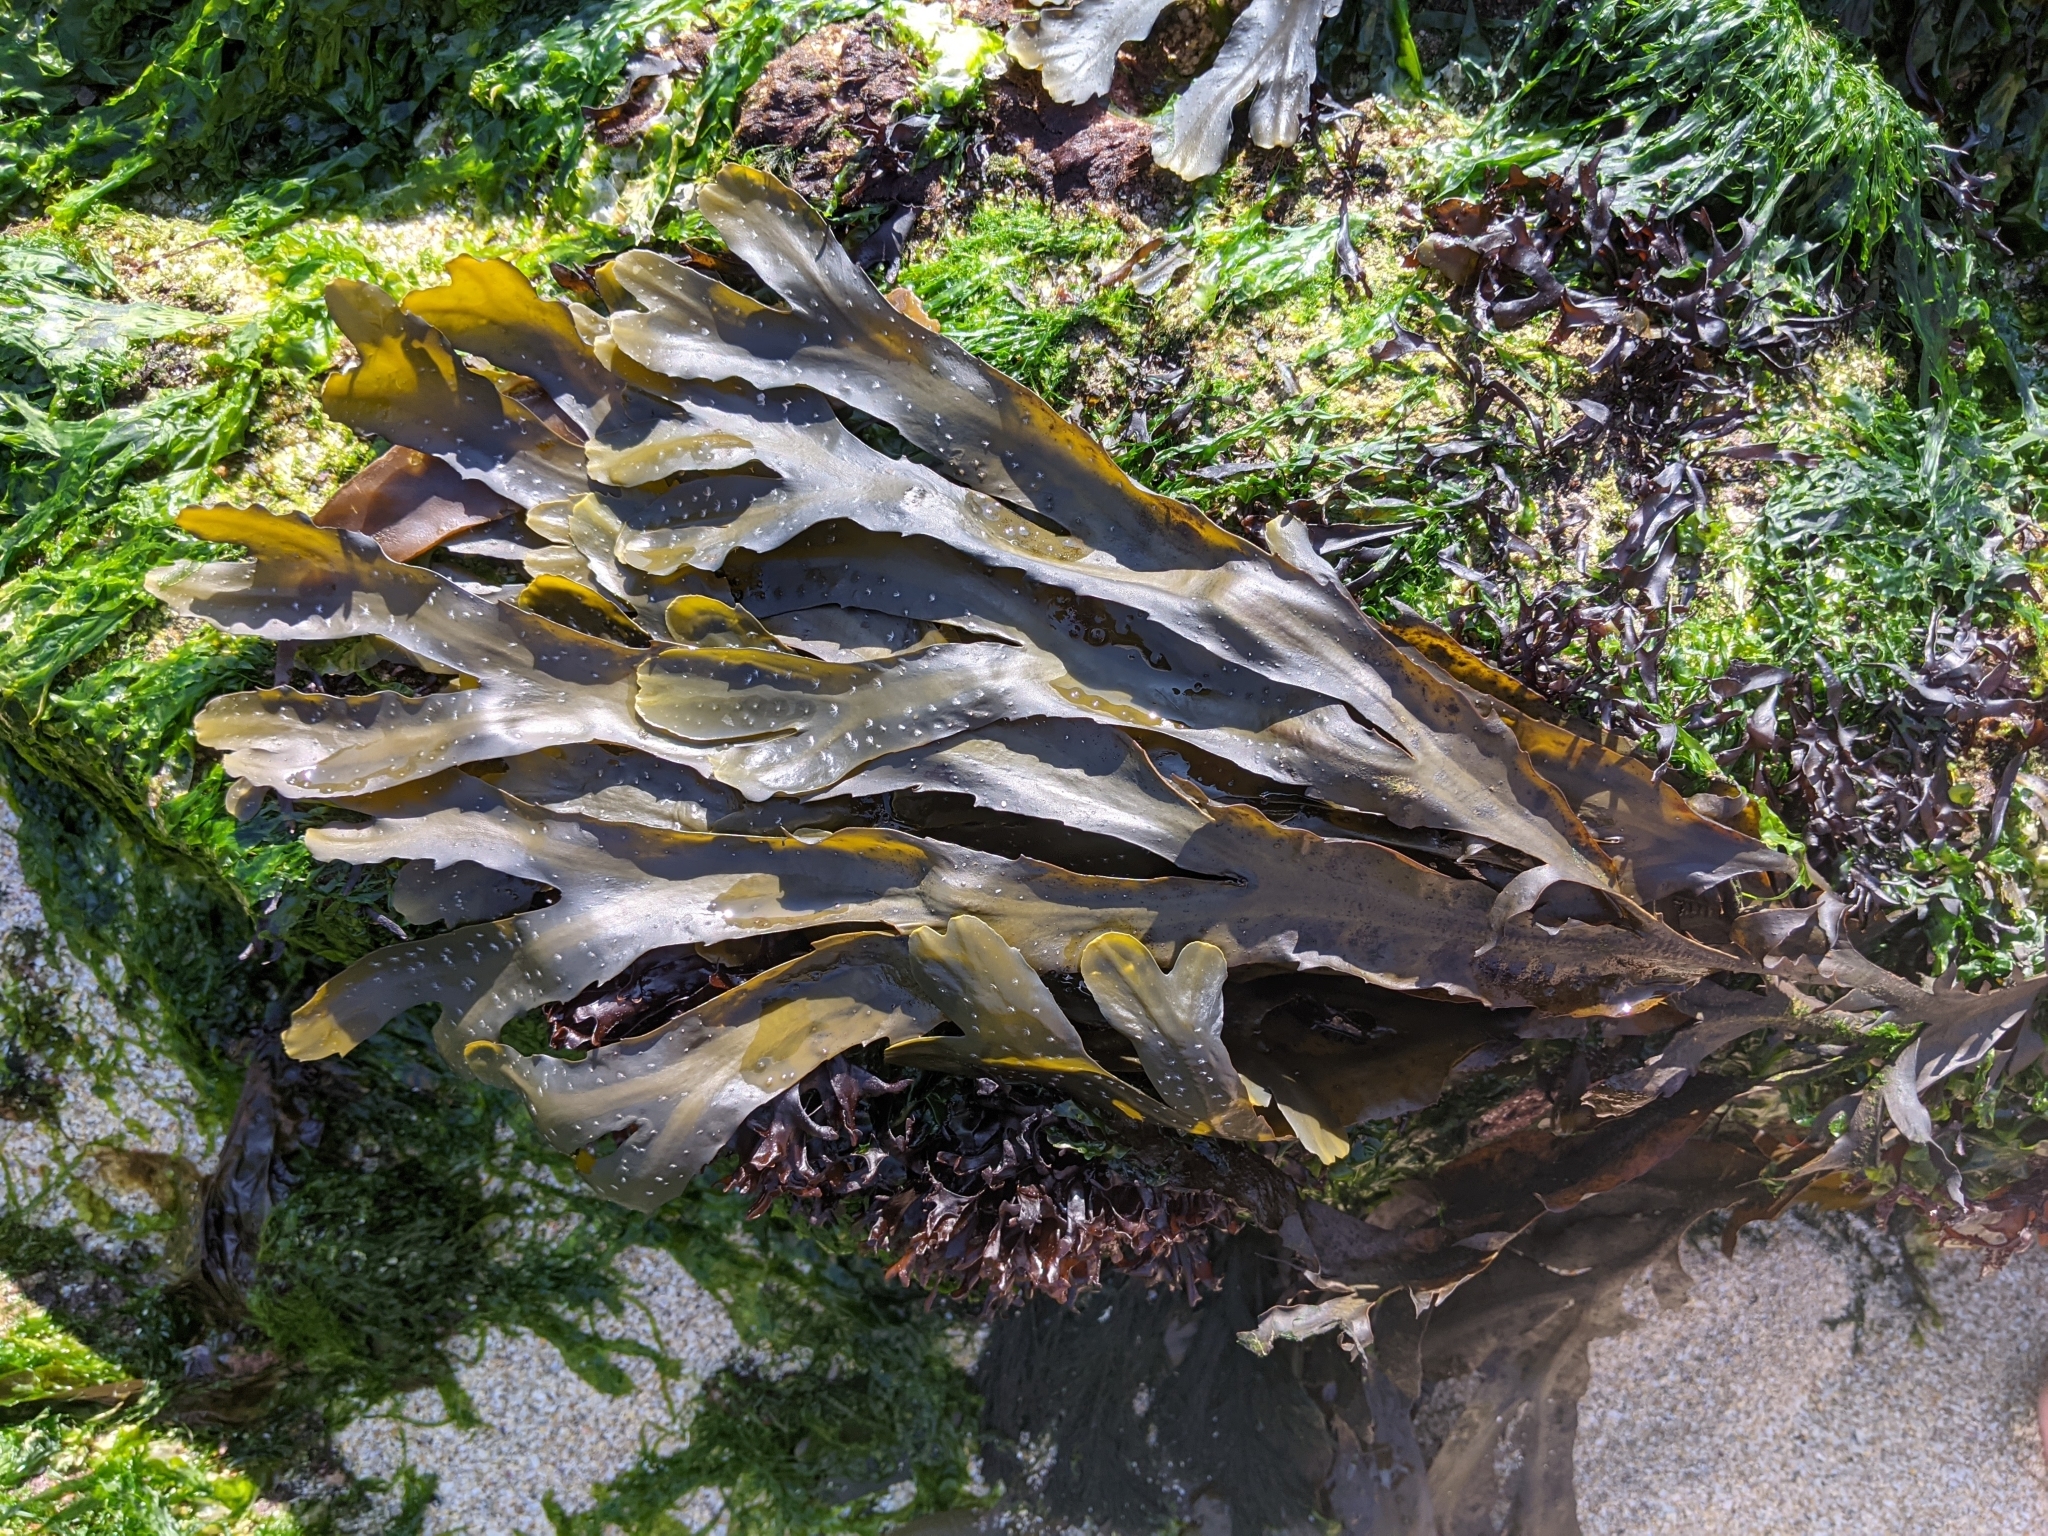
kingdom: Chromista
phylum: Ochrophyta
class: Phaeophyceae
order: Fucales
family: Fucaceae
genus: Fucus
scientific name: Fucus serratus
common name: Toothed wrack
